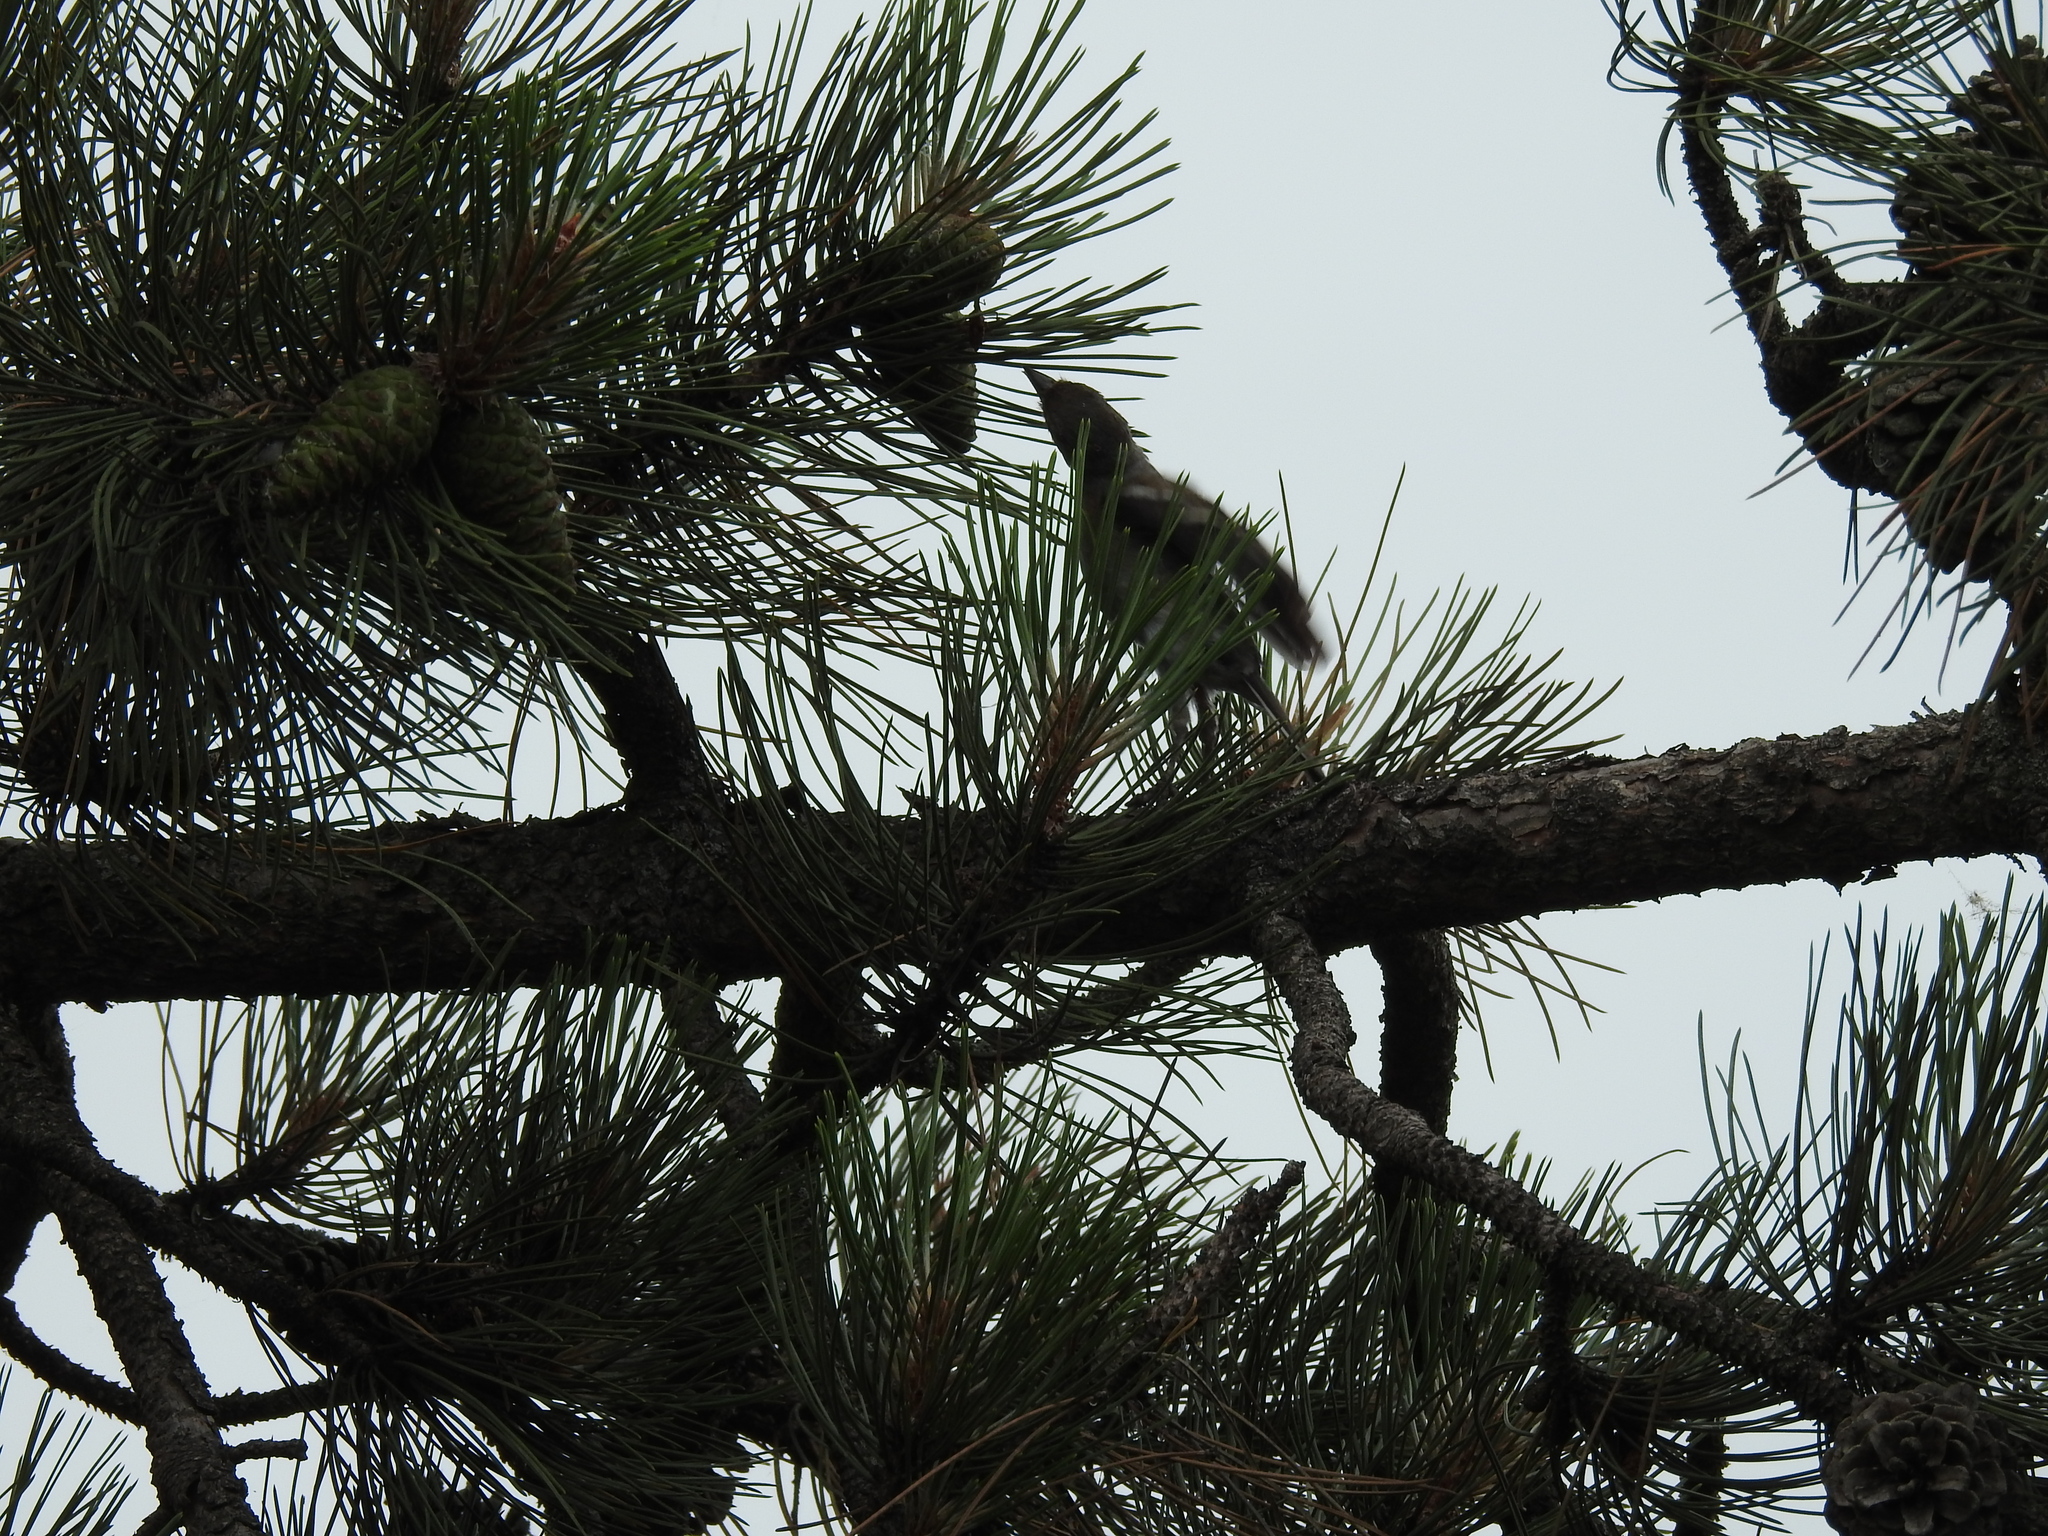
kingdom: Animalia
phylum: Chordata
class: Aves
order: Passeriformes
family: Fringillidae
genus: Fringilla
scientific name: Fringilla coelebs
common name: Common chaffinch
